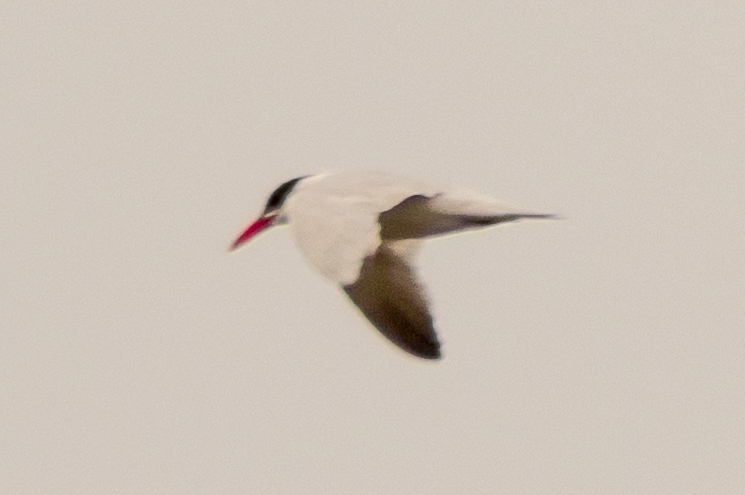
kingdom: Animalia
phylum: Chordata
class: Aves
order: Charadriiformes
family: Laridae
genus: Hydroprogne
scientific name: Hydroprogne caspia
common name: Caspian tern
